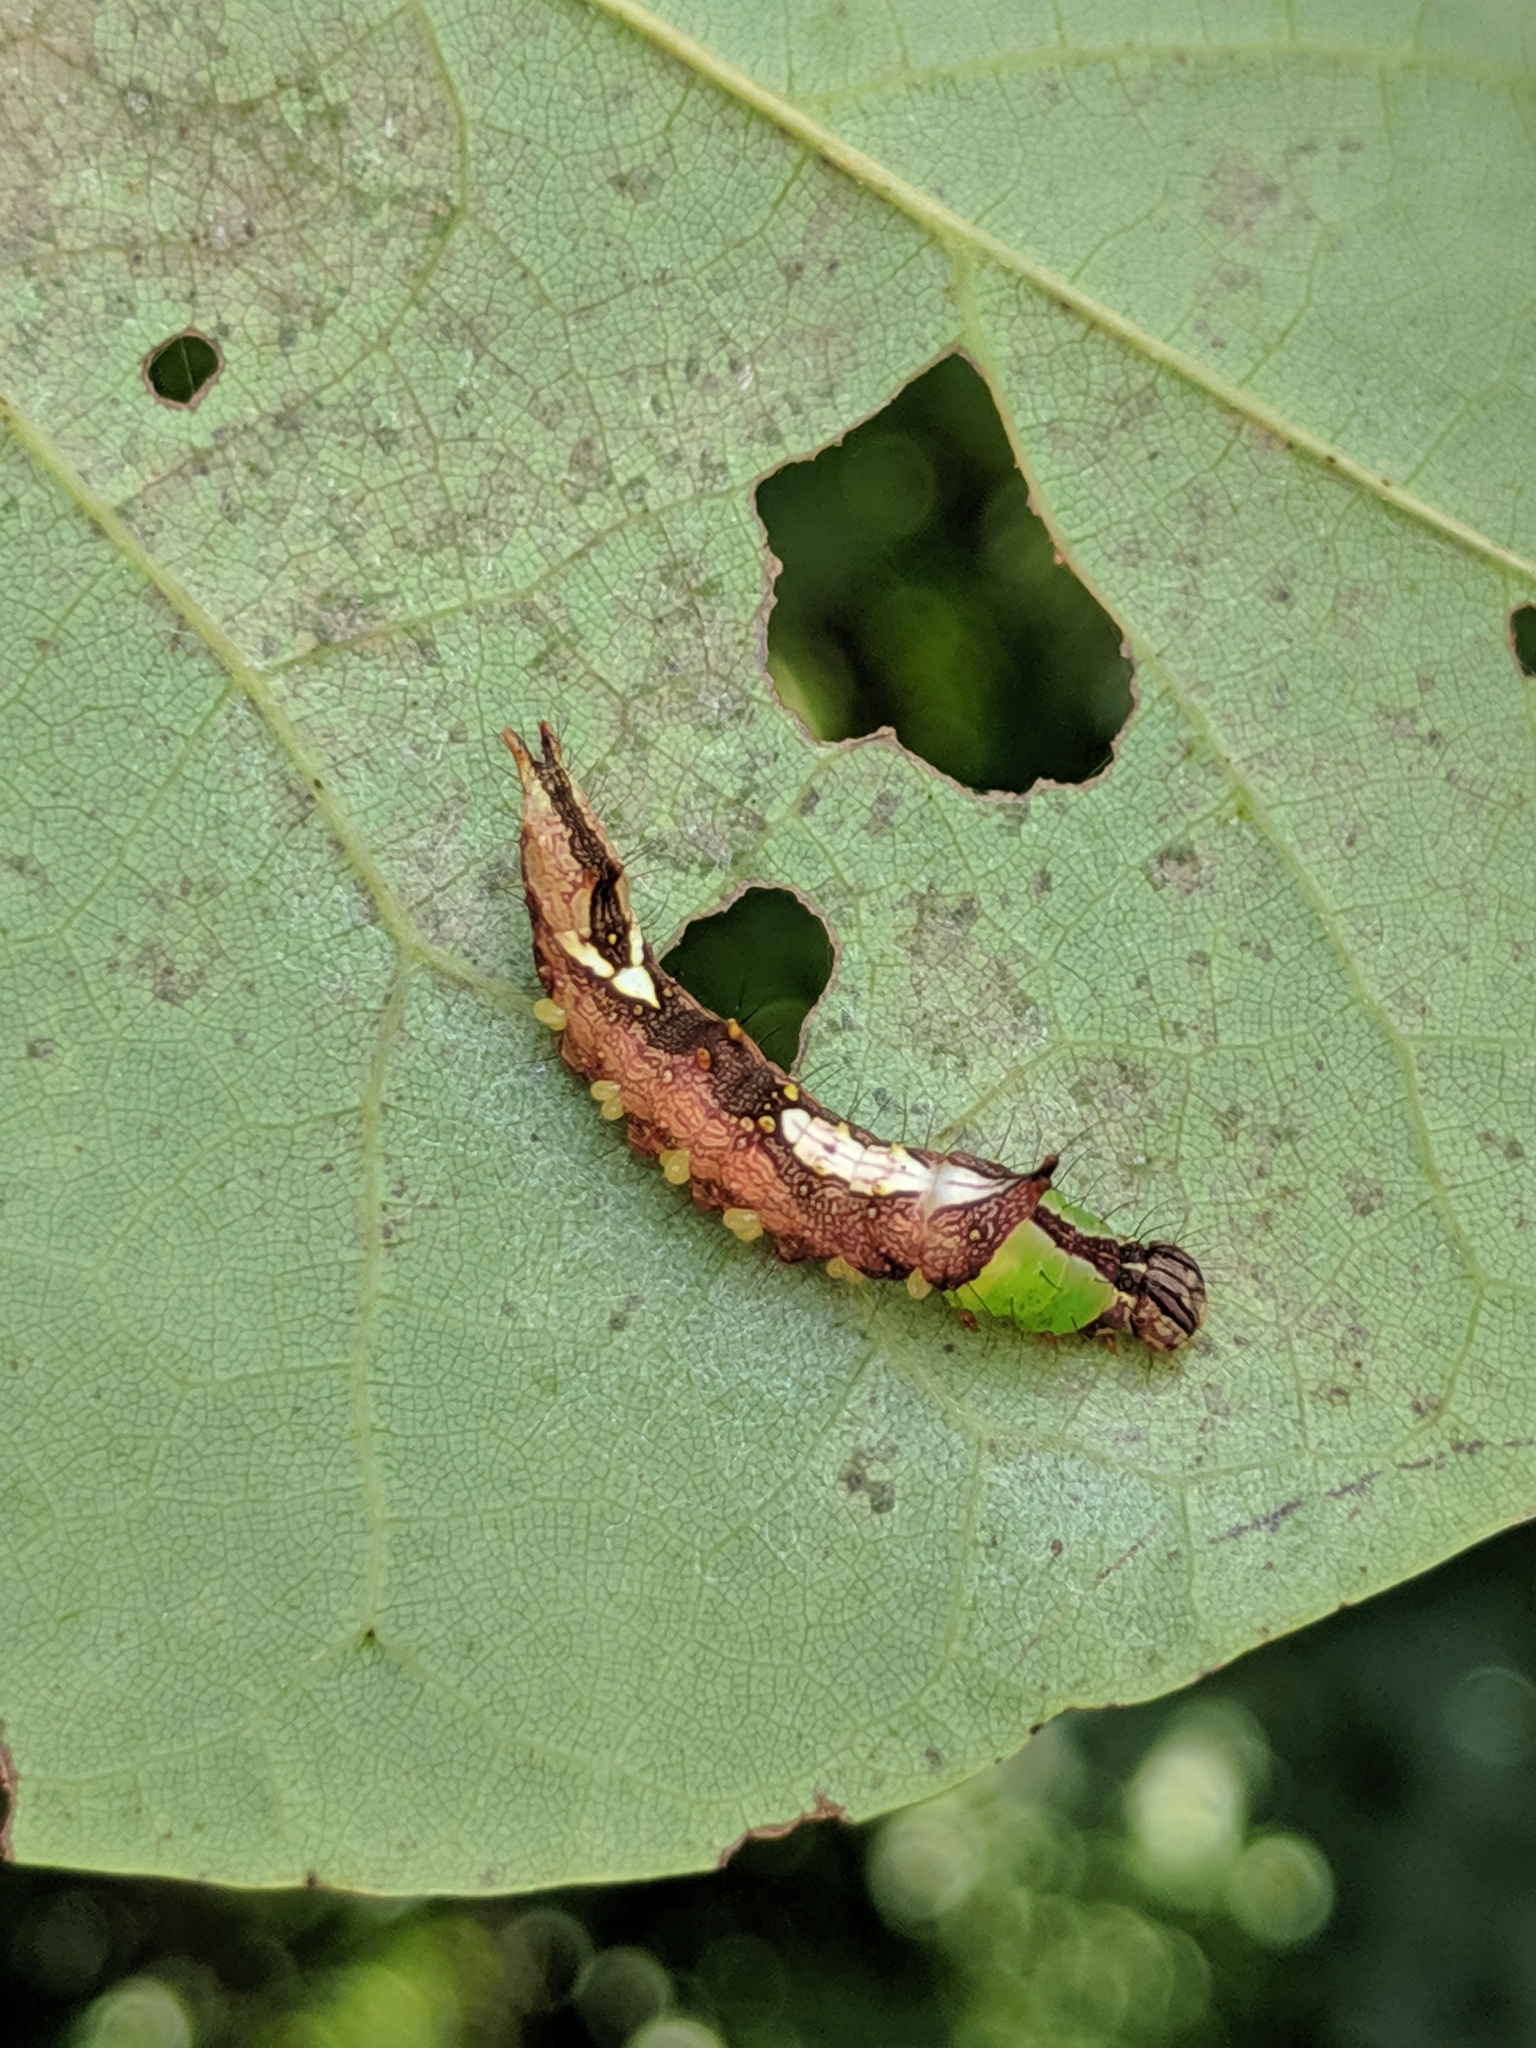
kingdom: Animalia
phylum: Arthropoda
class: Insecta
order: Lepidoptera
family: Notodontidae
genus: Schizura
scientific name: Schizura ipomaeae
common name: Morning-glory prominent
